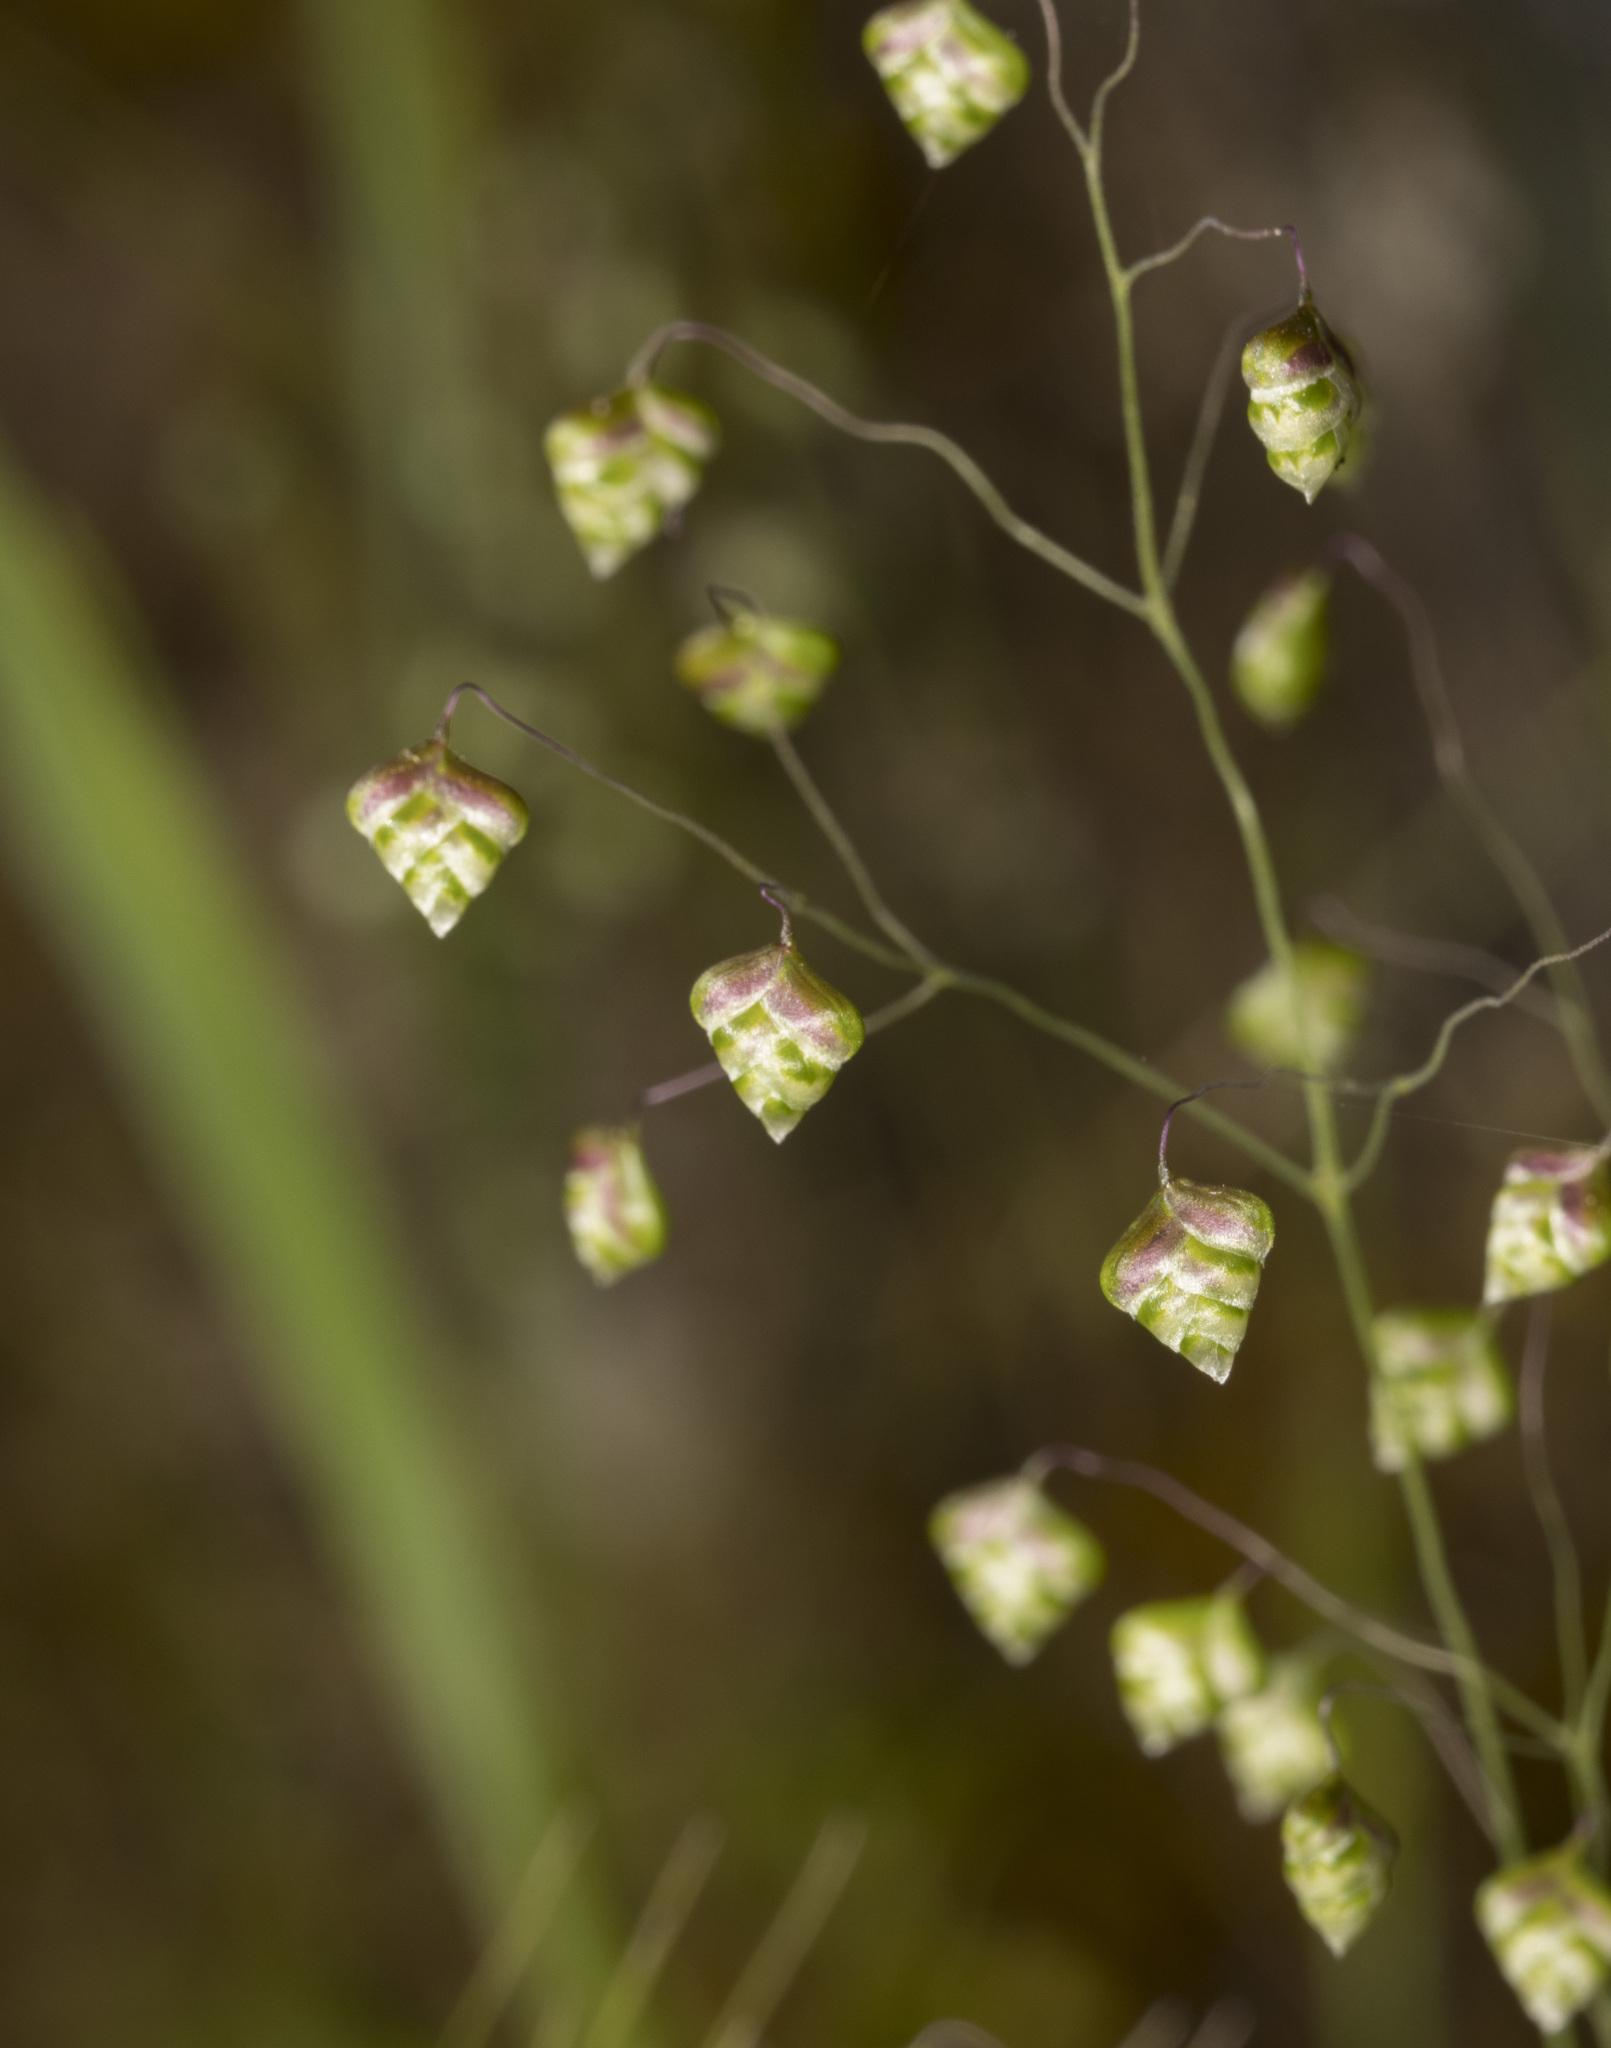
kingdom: Plantae
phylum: Tracheophyta
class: Liliopsida
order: Poales
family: Poaceae
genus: Briza
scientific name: Briza minor
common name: Lesser quaking-grass
